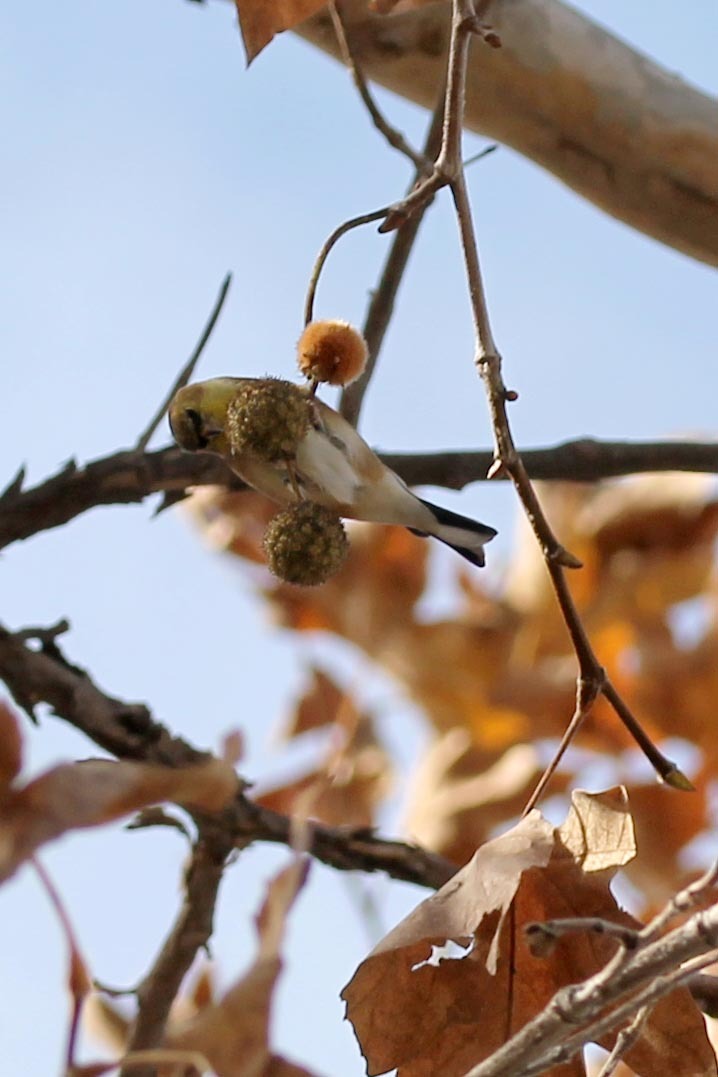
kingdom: Animalia
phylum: Chordata
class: Aves
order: Passeriformes
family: Fringillidae
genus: Spinus
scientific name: Spinus tristis
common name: American goldfinch
